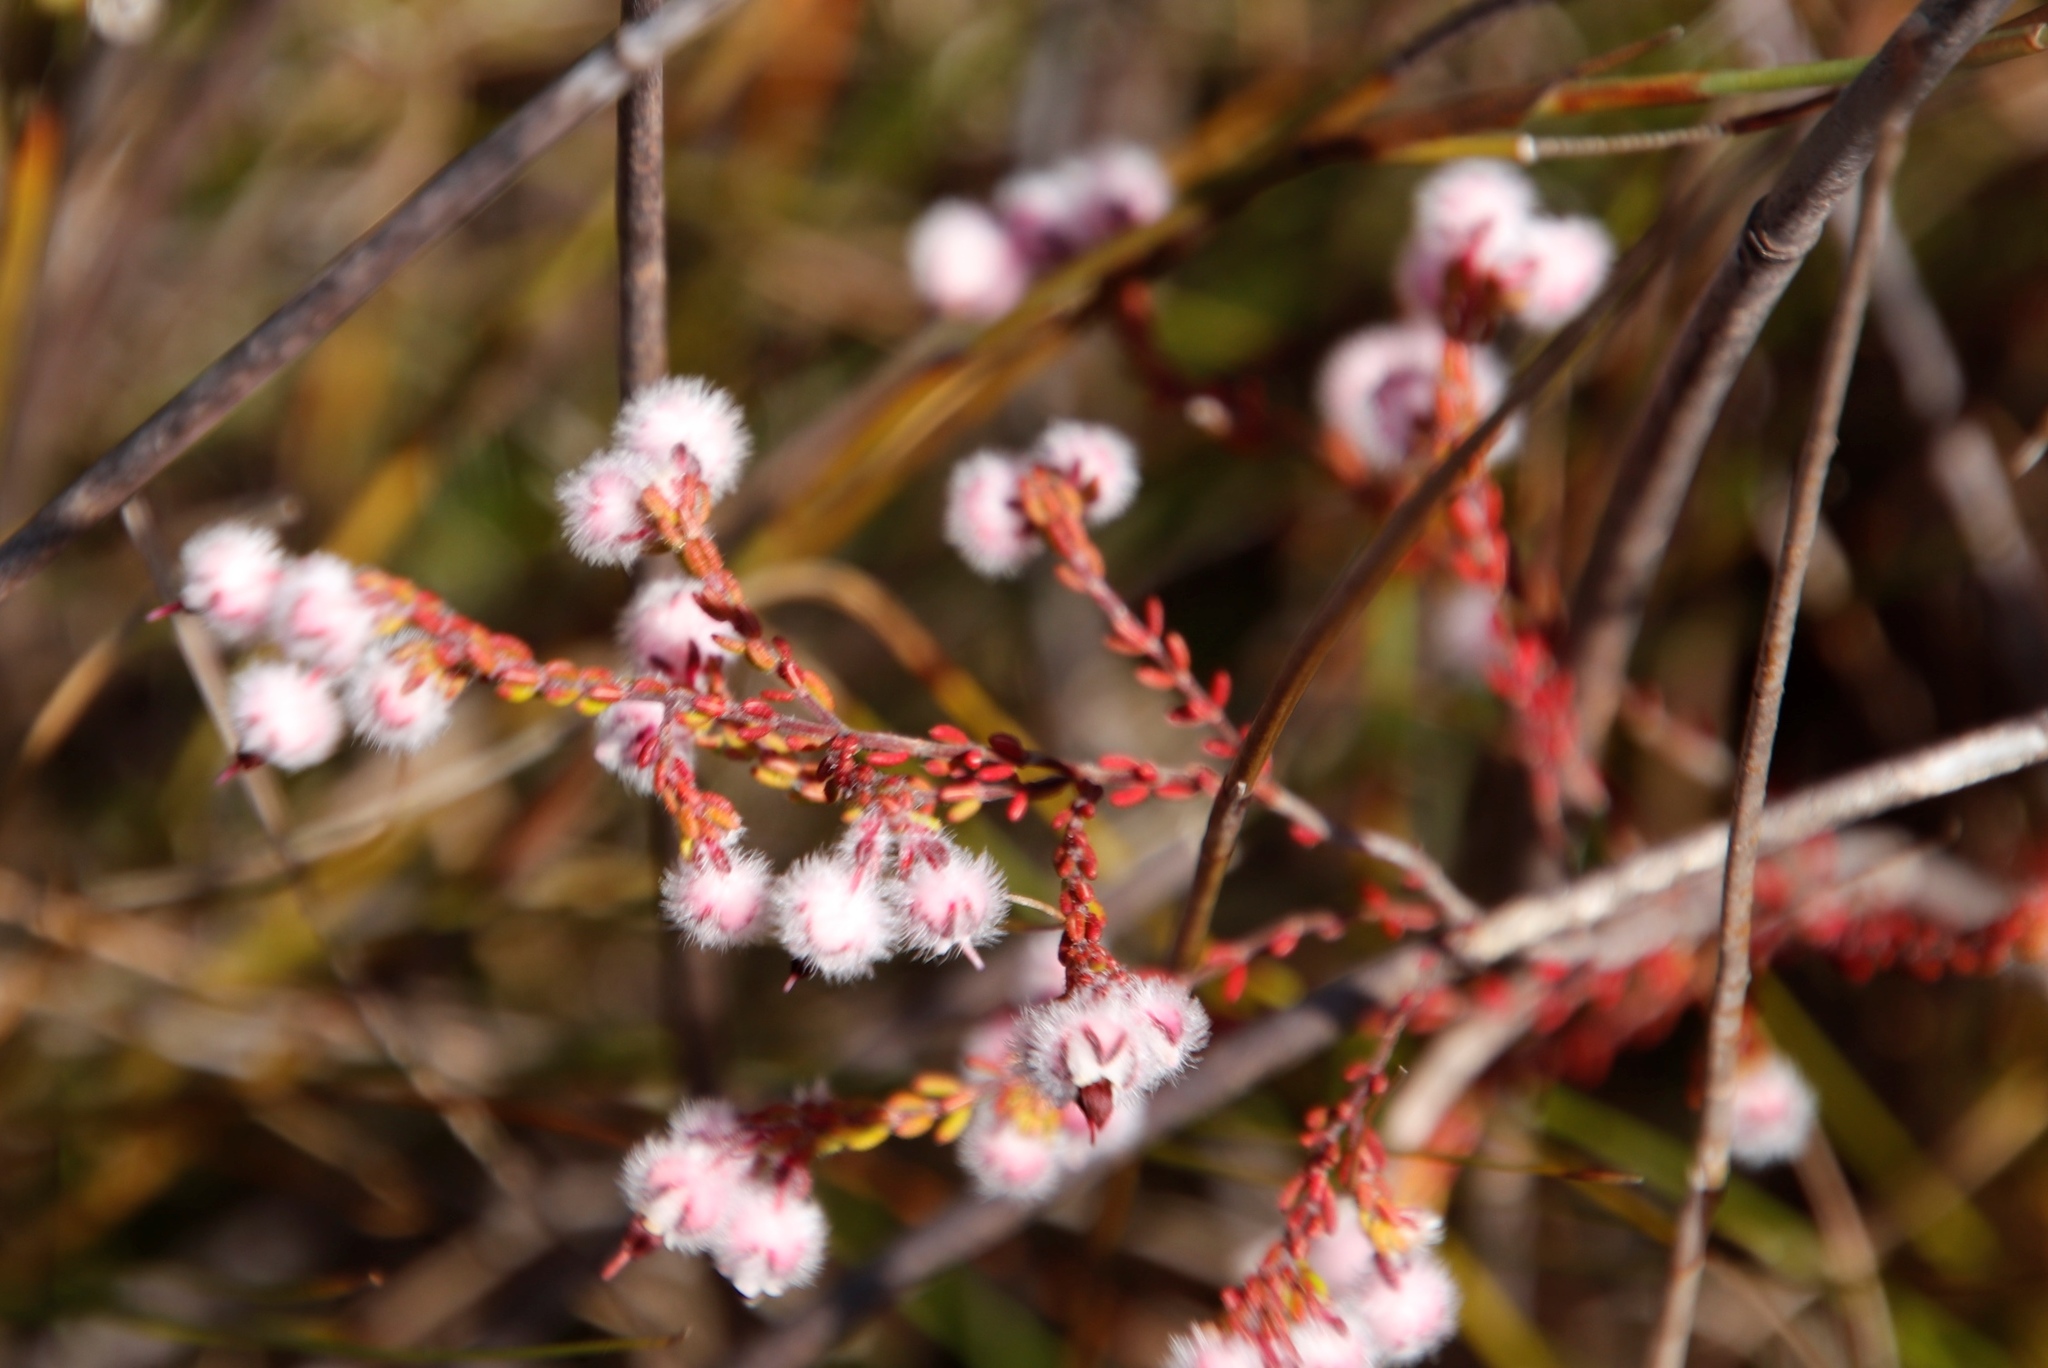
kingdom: Plantae
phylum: Tracheophyta
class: Magnoliopsida
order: Ericales
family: Ericaceae
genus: Erica
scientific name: Erica bruniades
